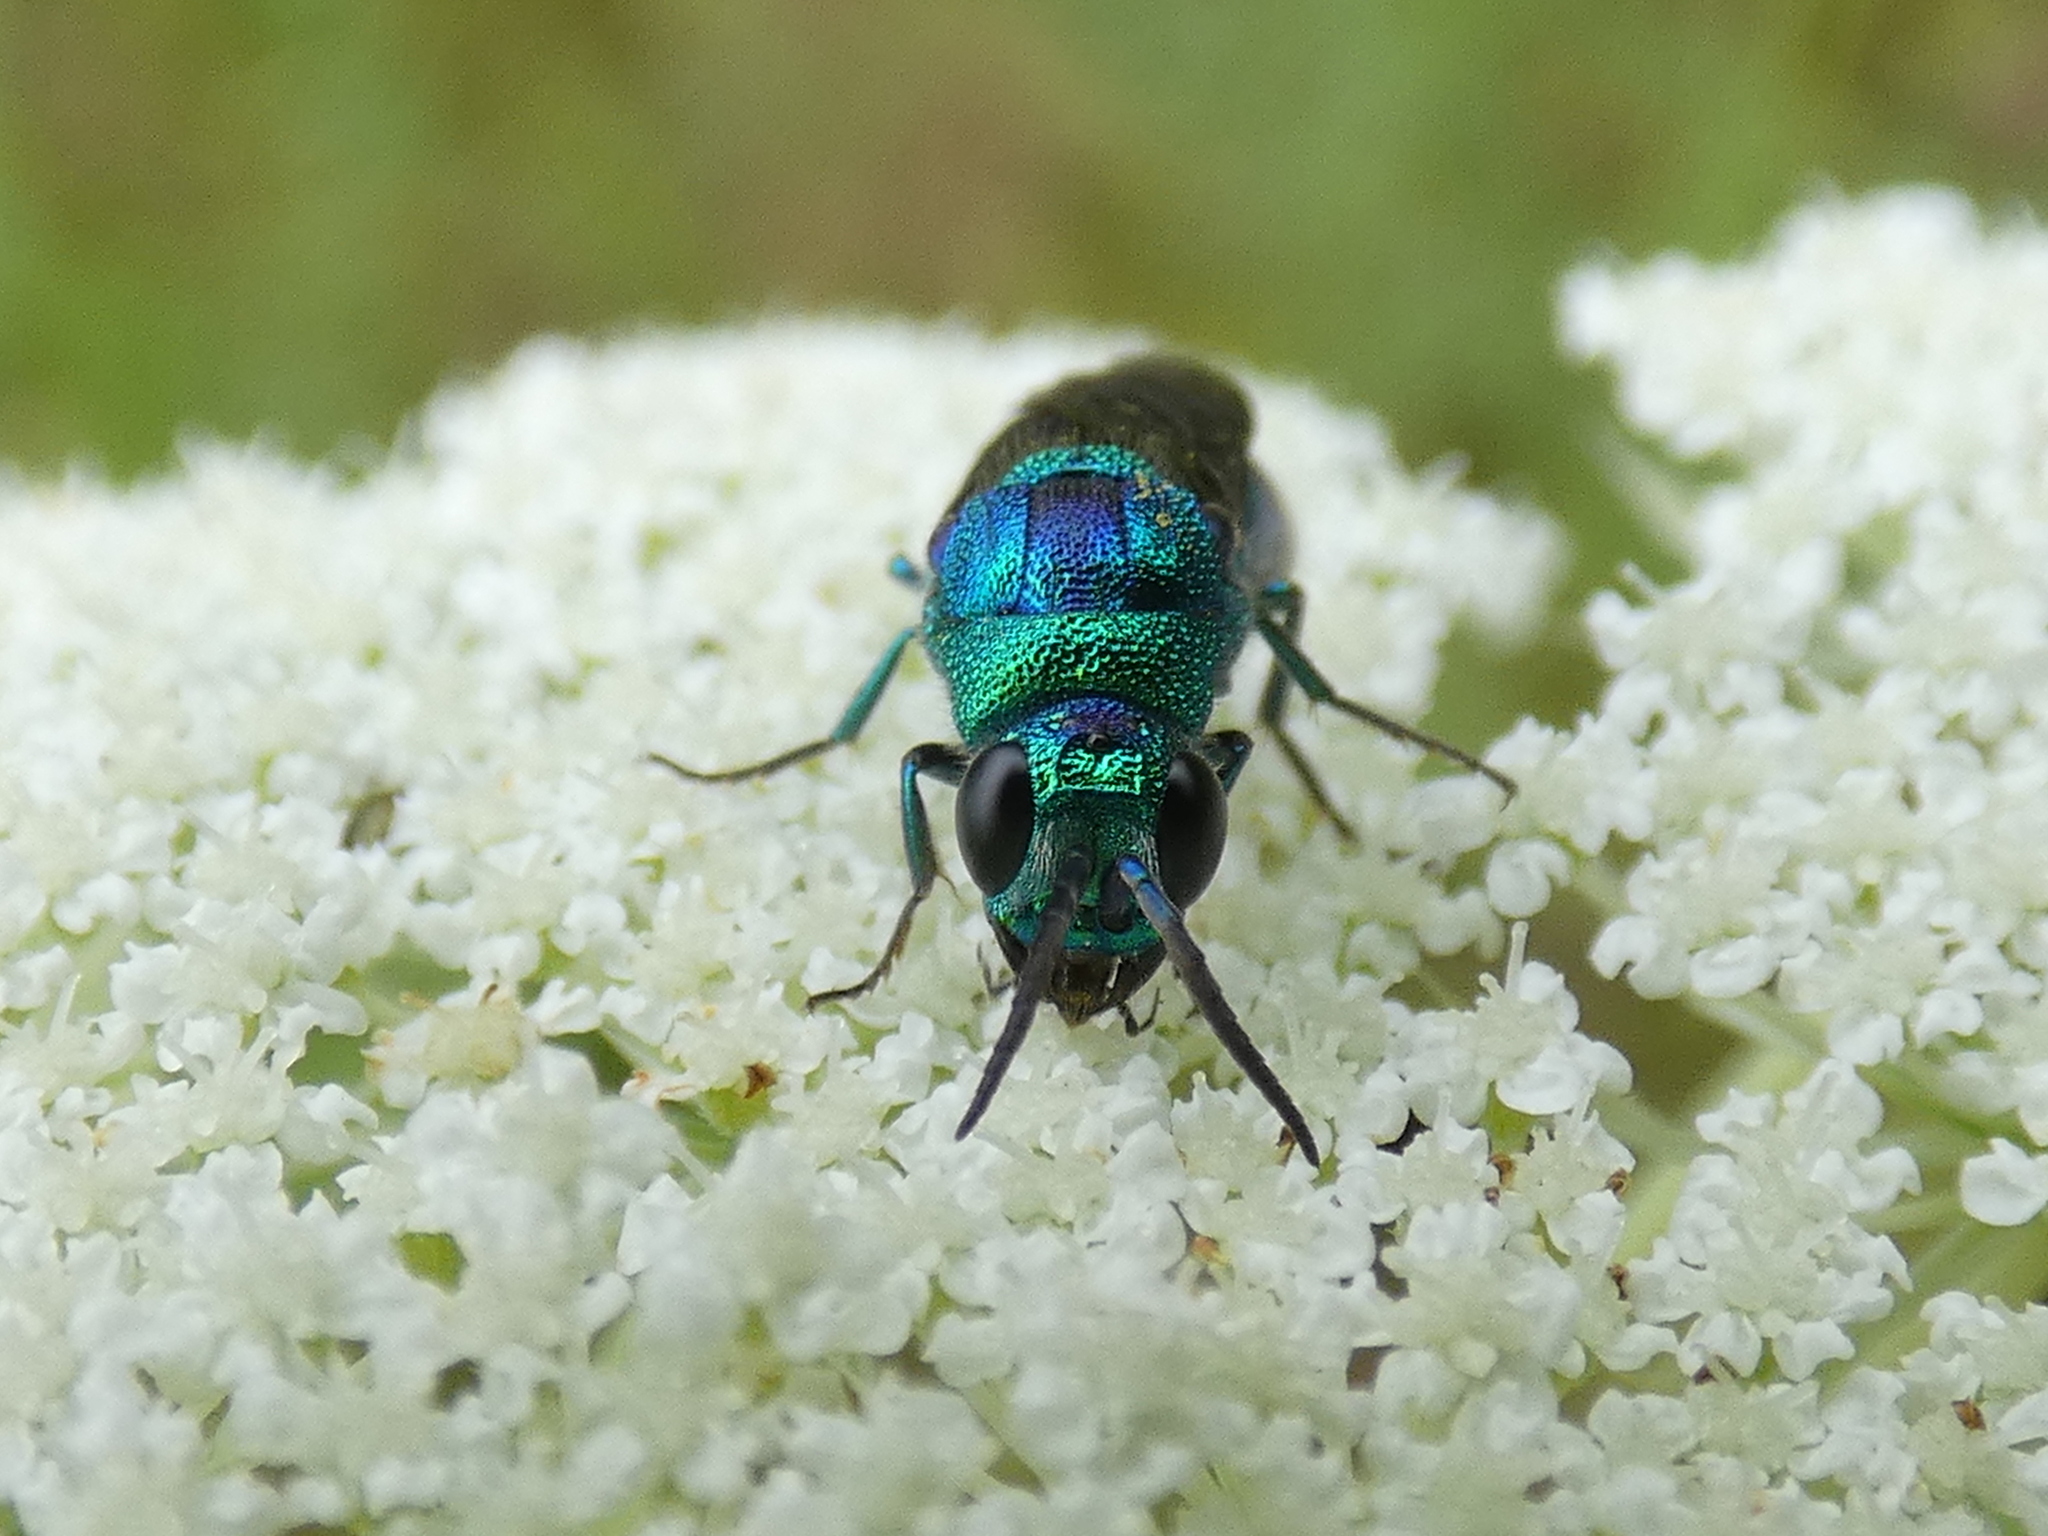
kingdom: Animalia
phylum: Arthropoda
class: Insecta
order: Hymenoptera
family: Chrysididae
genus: Chrysis
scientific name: Chrysis angolensis
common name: Cuckoo wasp
